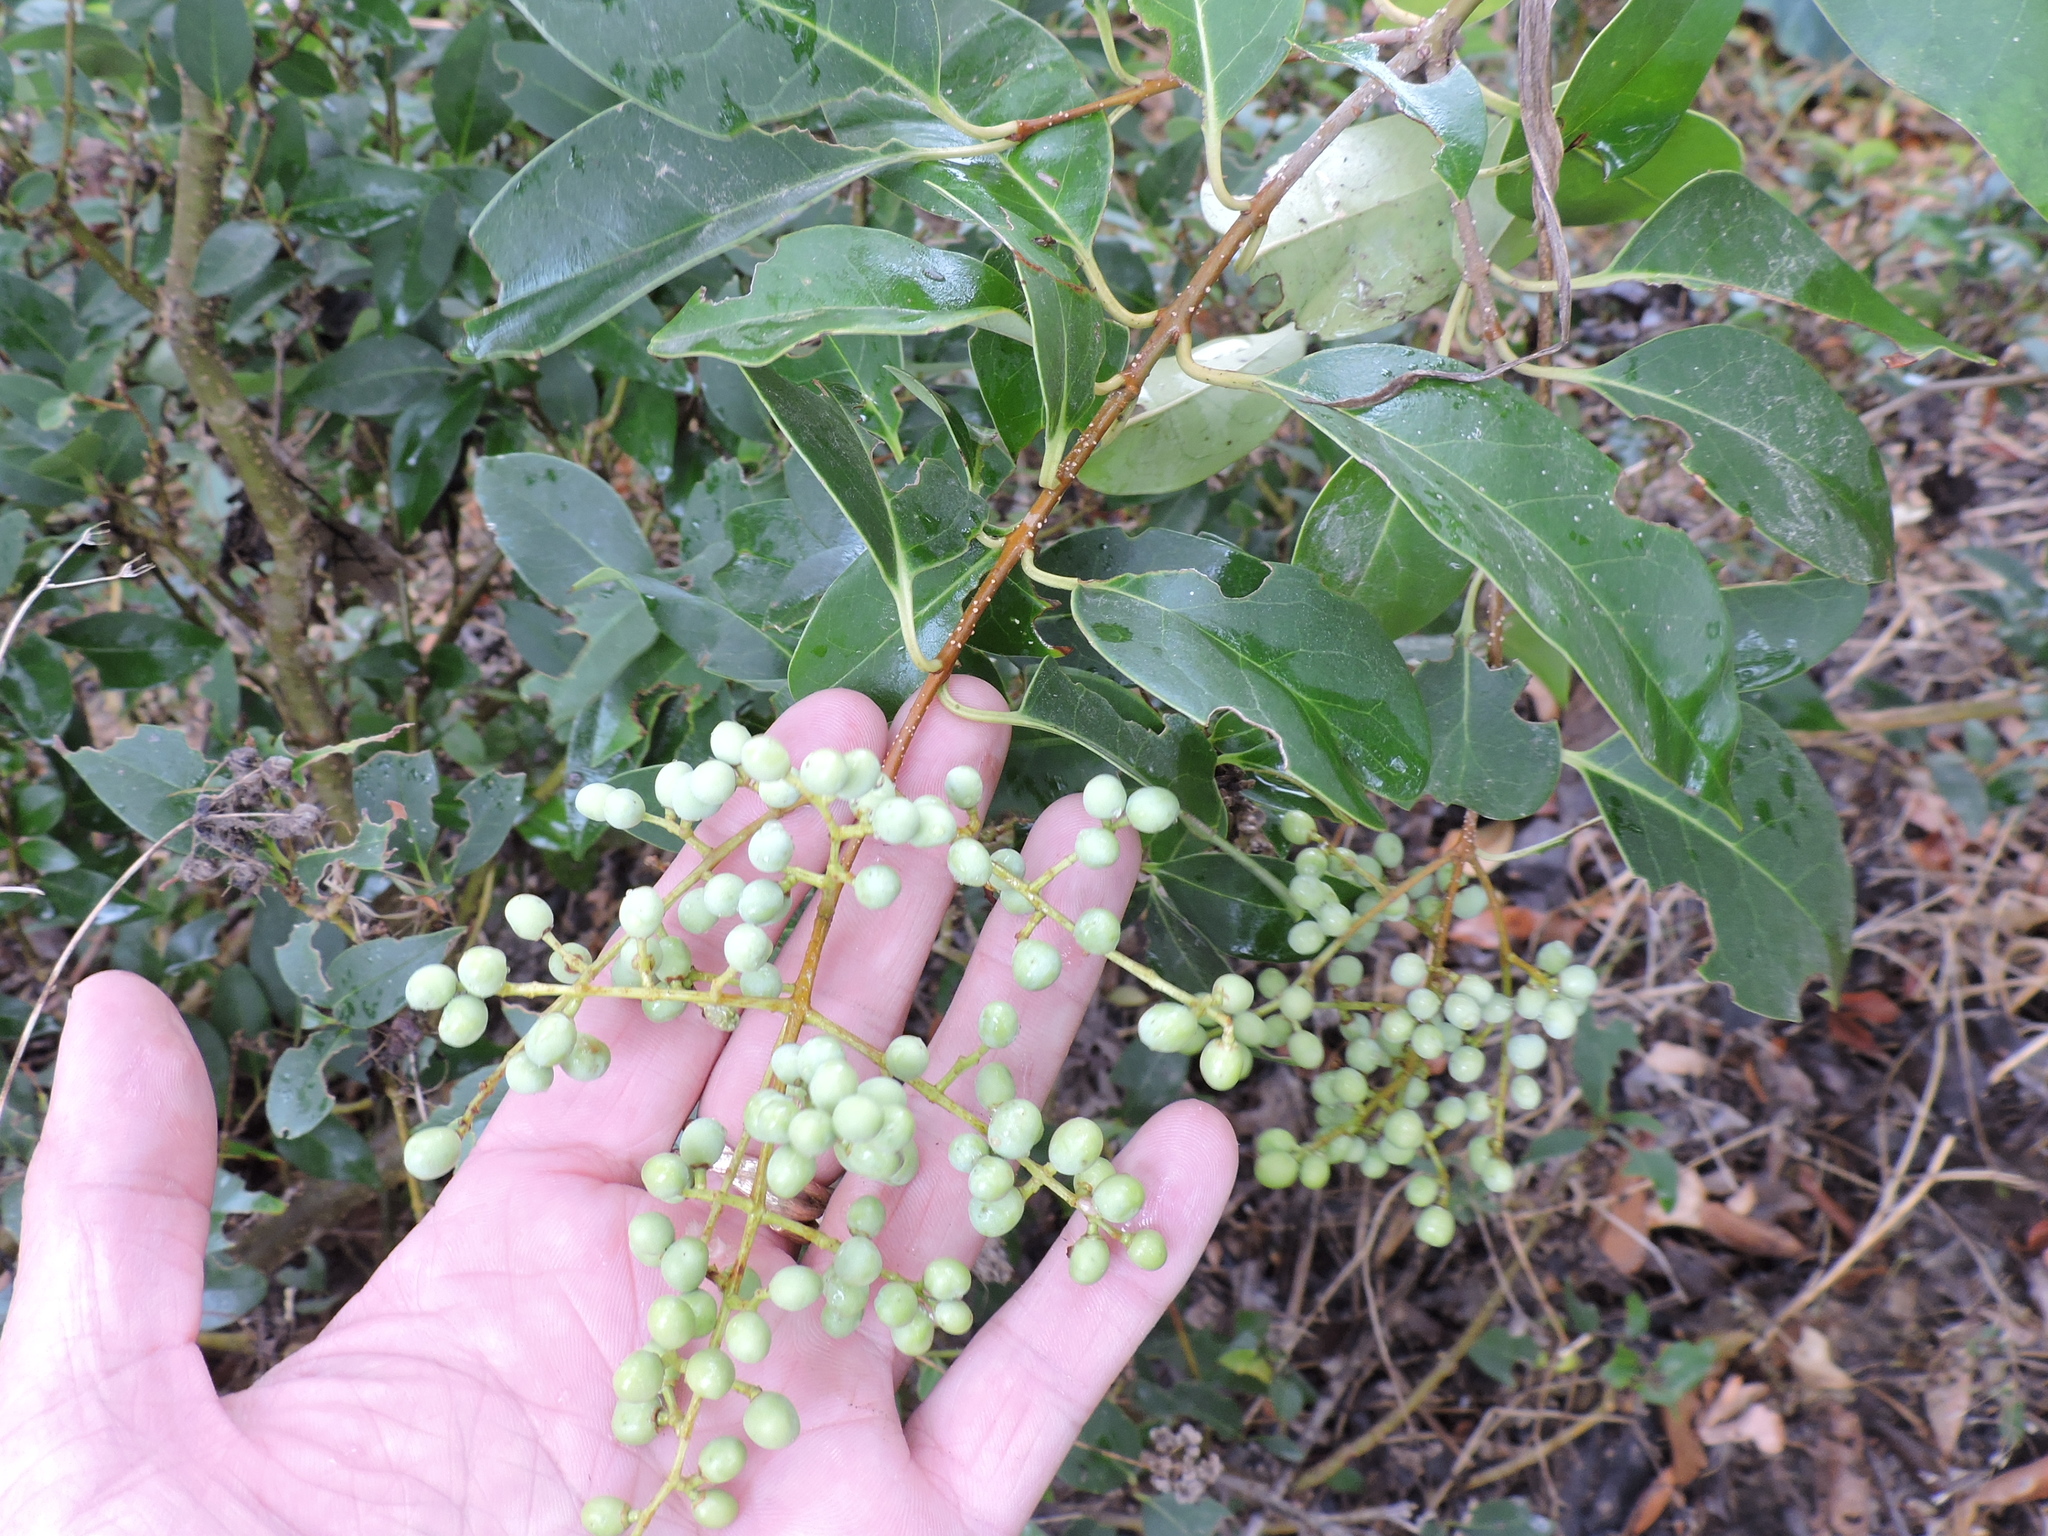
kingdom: Plantae
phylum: Tracheophyta
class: Magnoliopsida
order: Lamiales
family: Oleaceae
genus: Ligustrum
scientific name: Ligustrum lucidum
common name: Glossy privet
